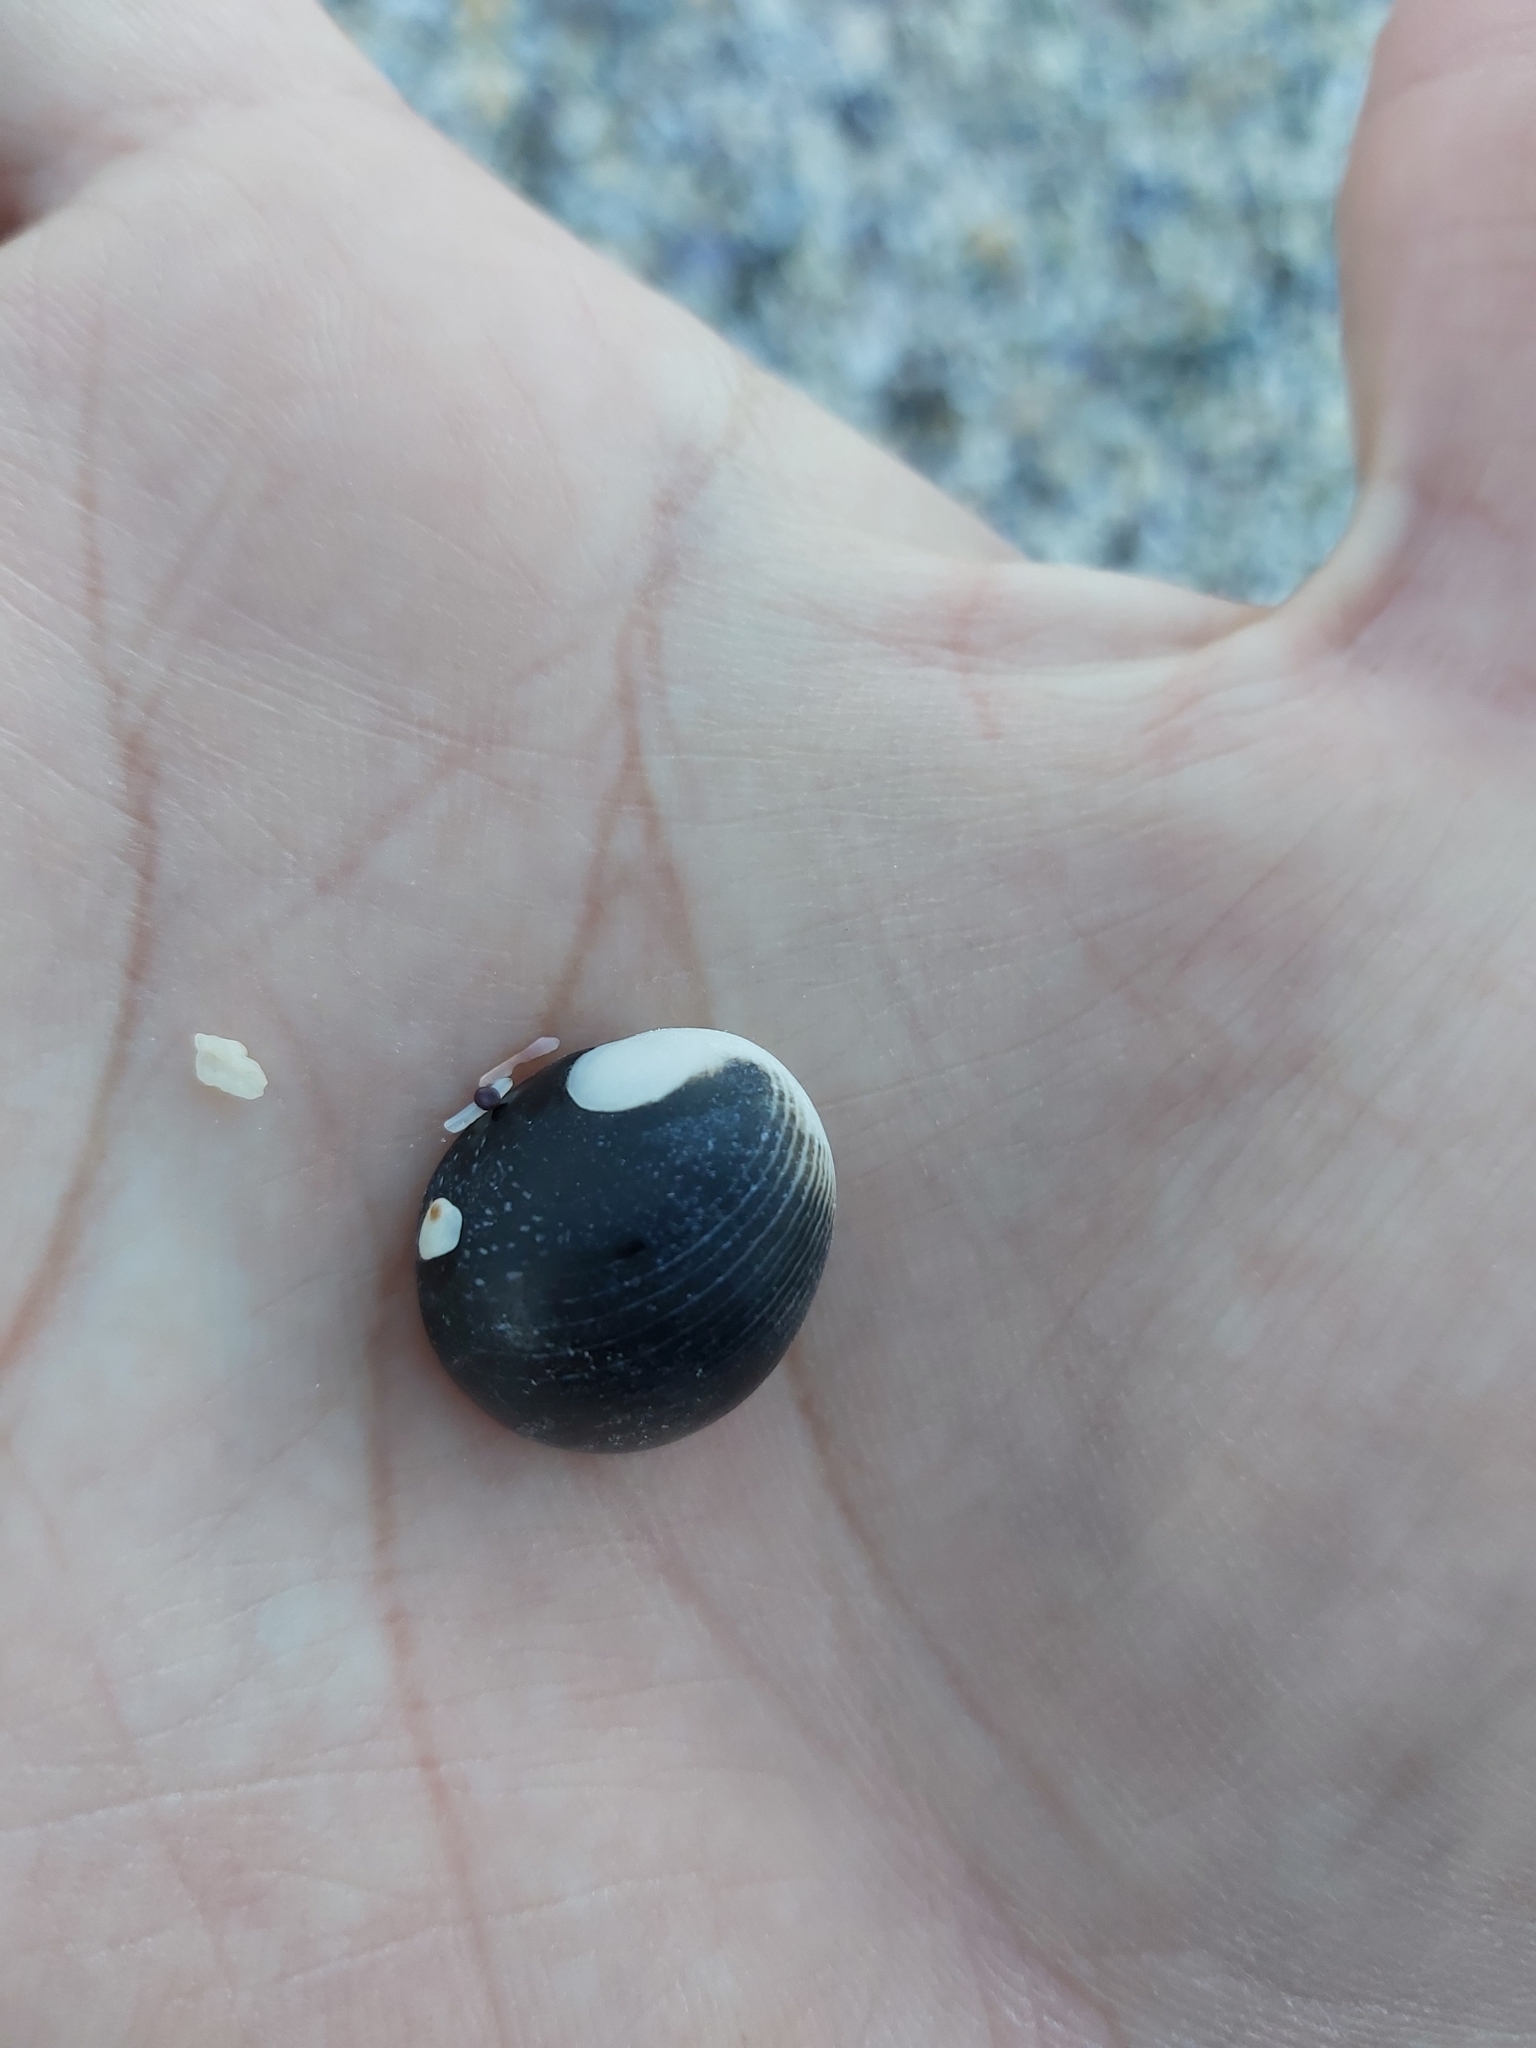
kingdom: Animalia
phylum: Mollusca
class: Gastropoda
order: Cycloneritida
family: Neritidae
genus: Nerita
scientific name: Nerita melanotragus
